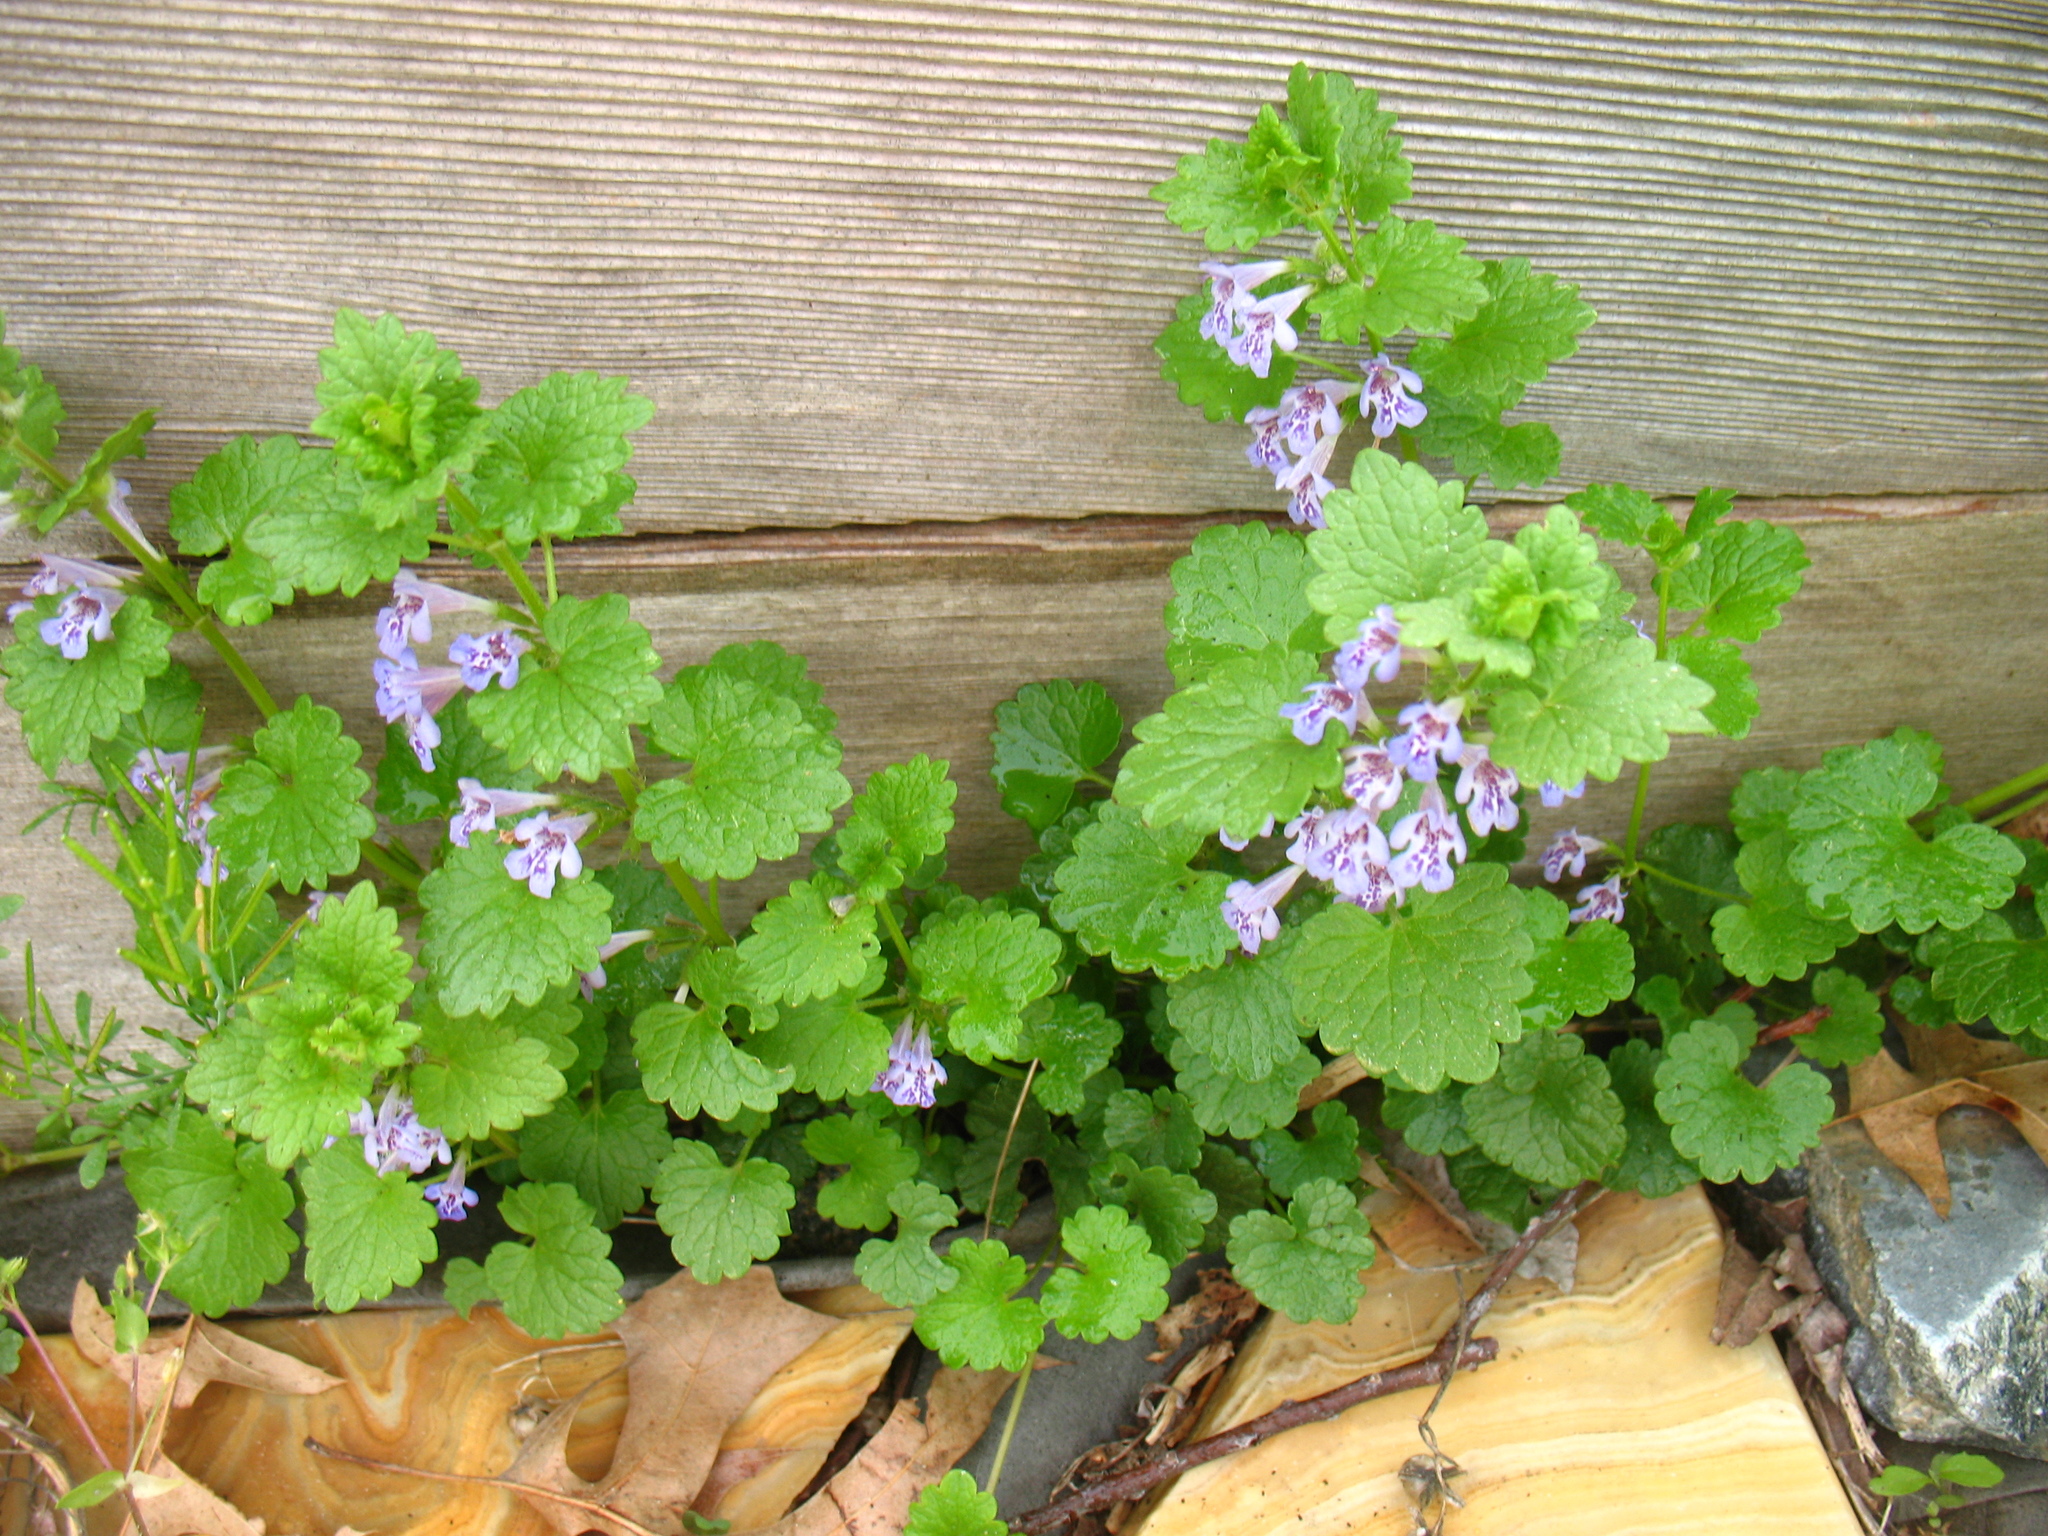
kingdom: Plantae
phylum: Tracheophyta
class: Magnoliopsida
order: Lamiales
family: Lamiaceae
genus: Glechoma
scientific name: Glechoma hederacea
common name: Ground ivy
